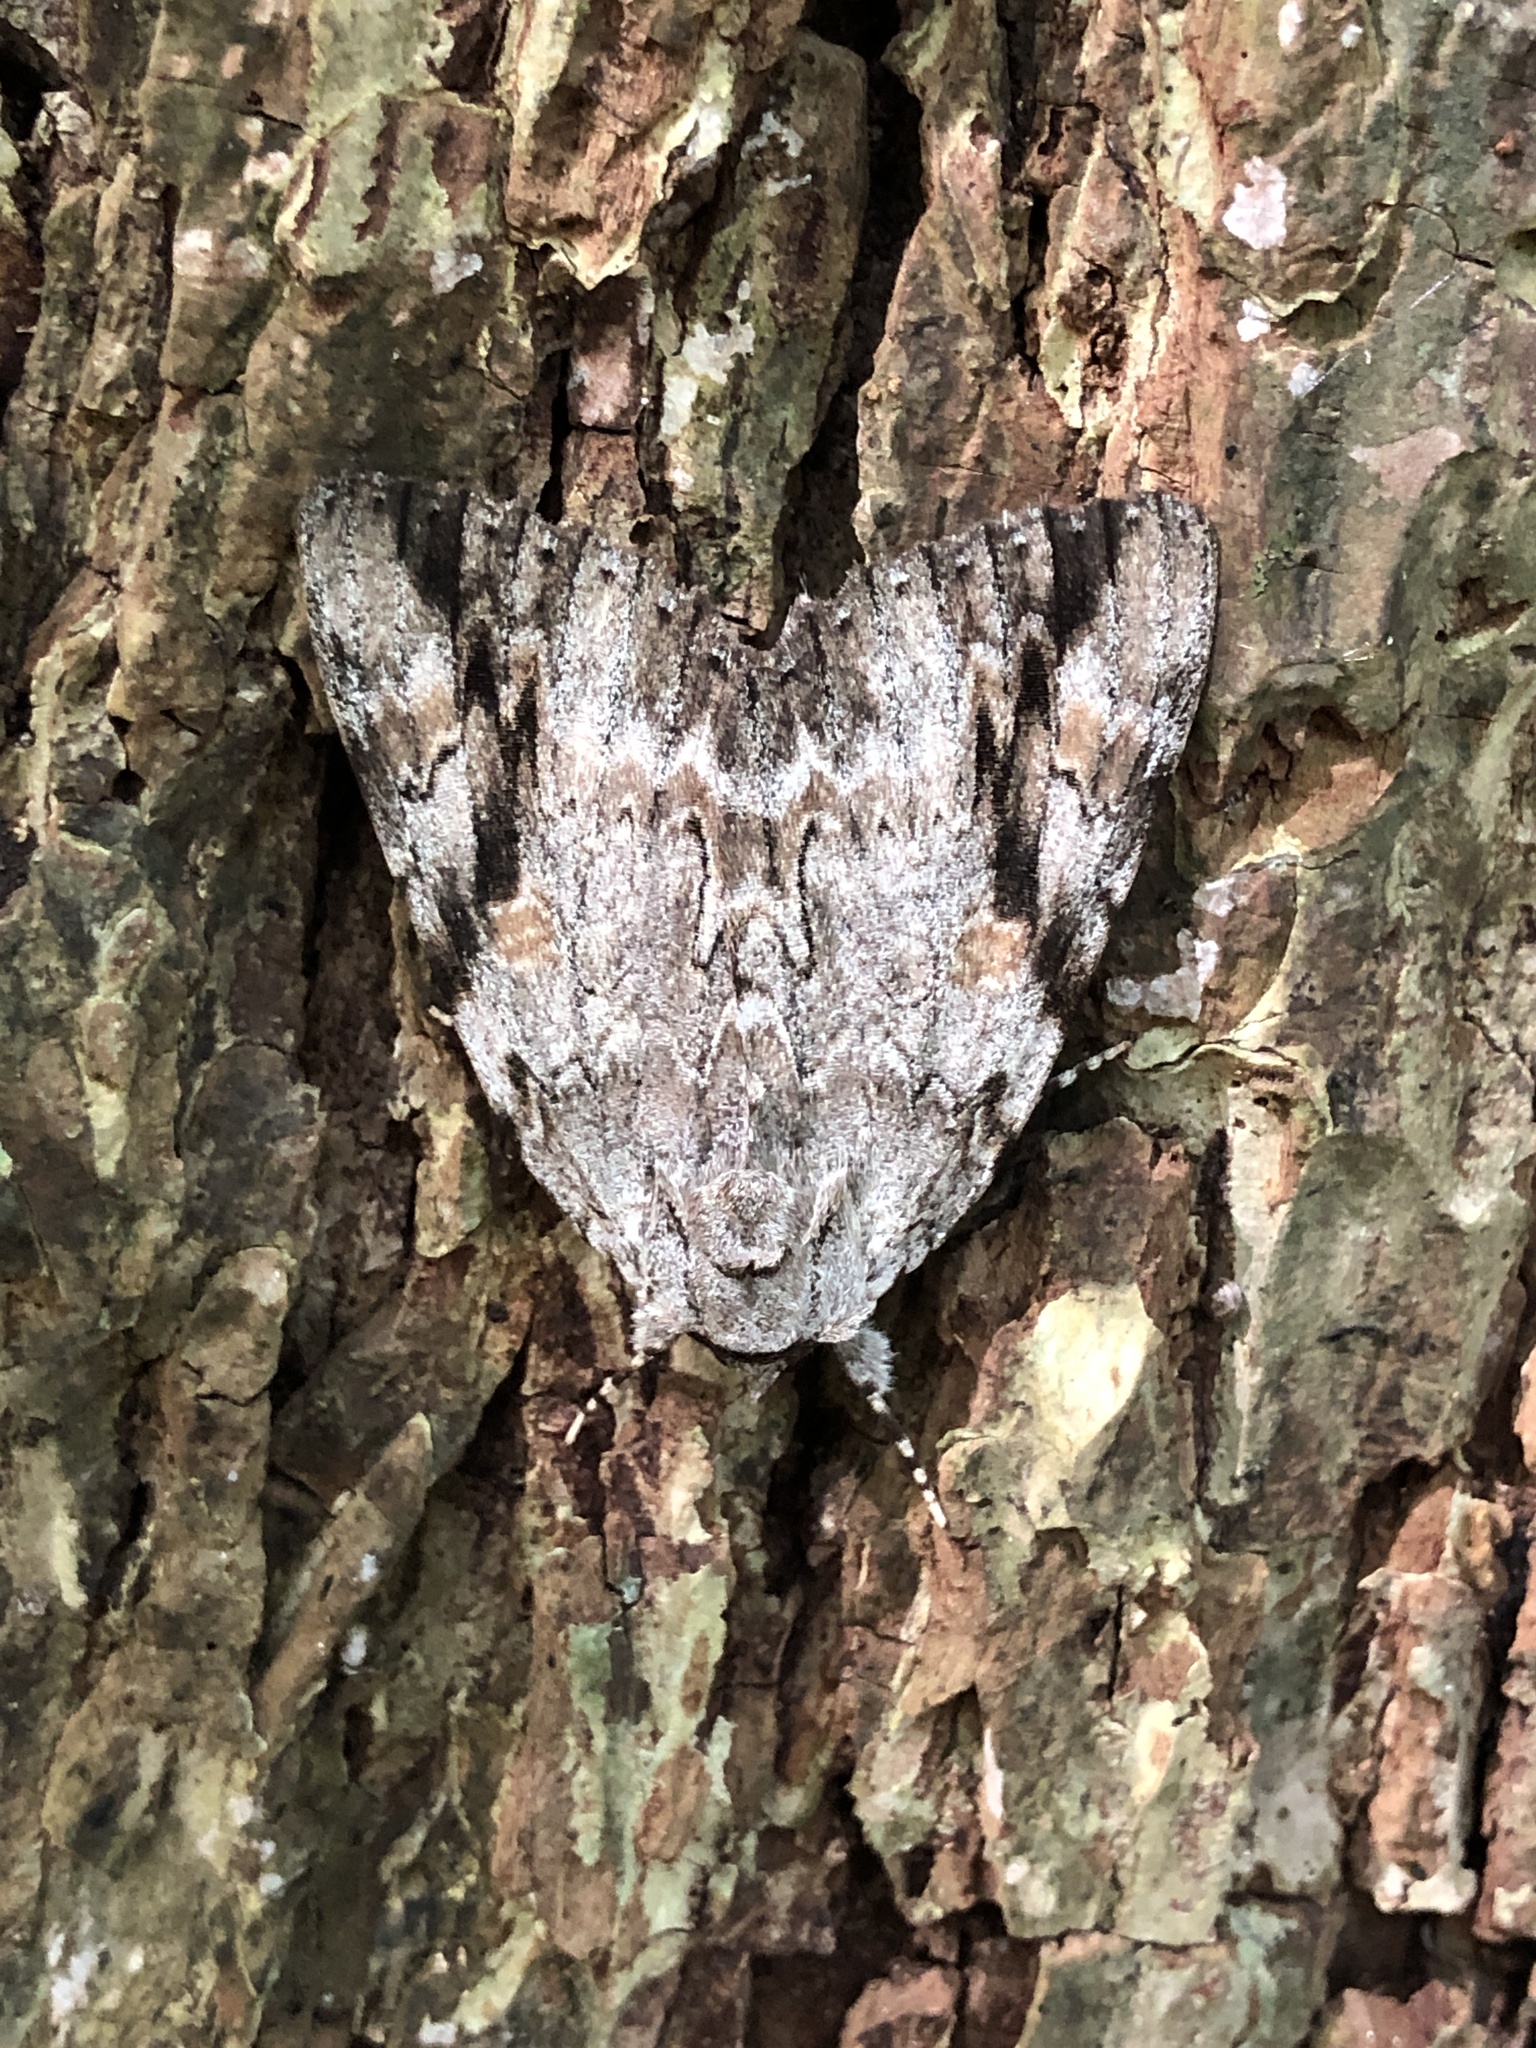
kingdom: Animalia
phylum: Arthropoda
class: Insecta
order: Lepidoptera
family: Erebidae
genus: Catocala
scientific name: Catocala maestosa
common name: Sad underwing
